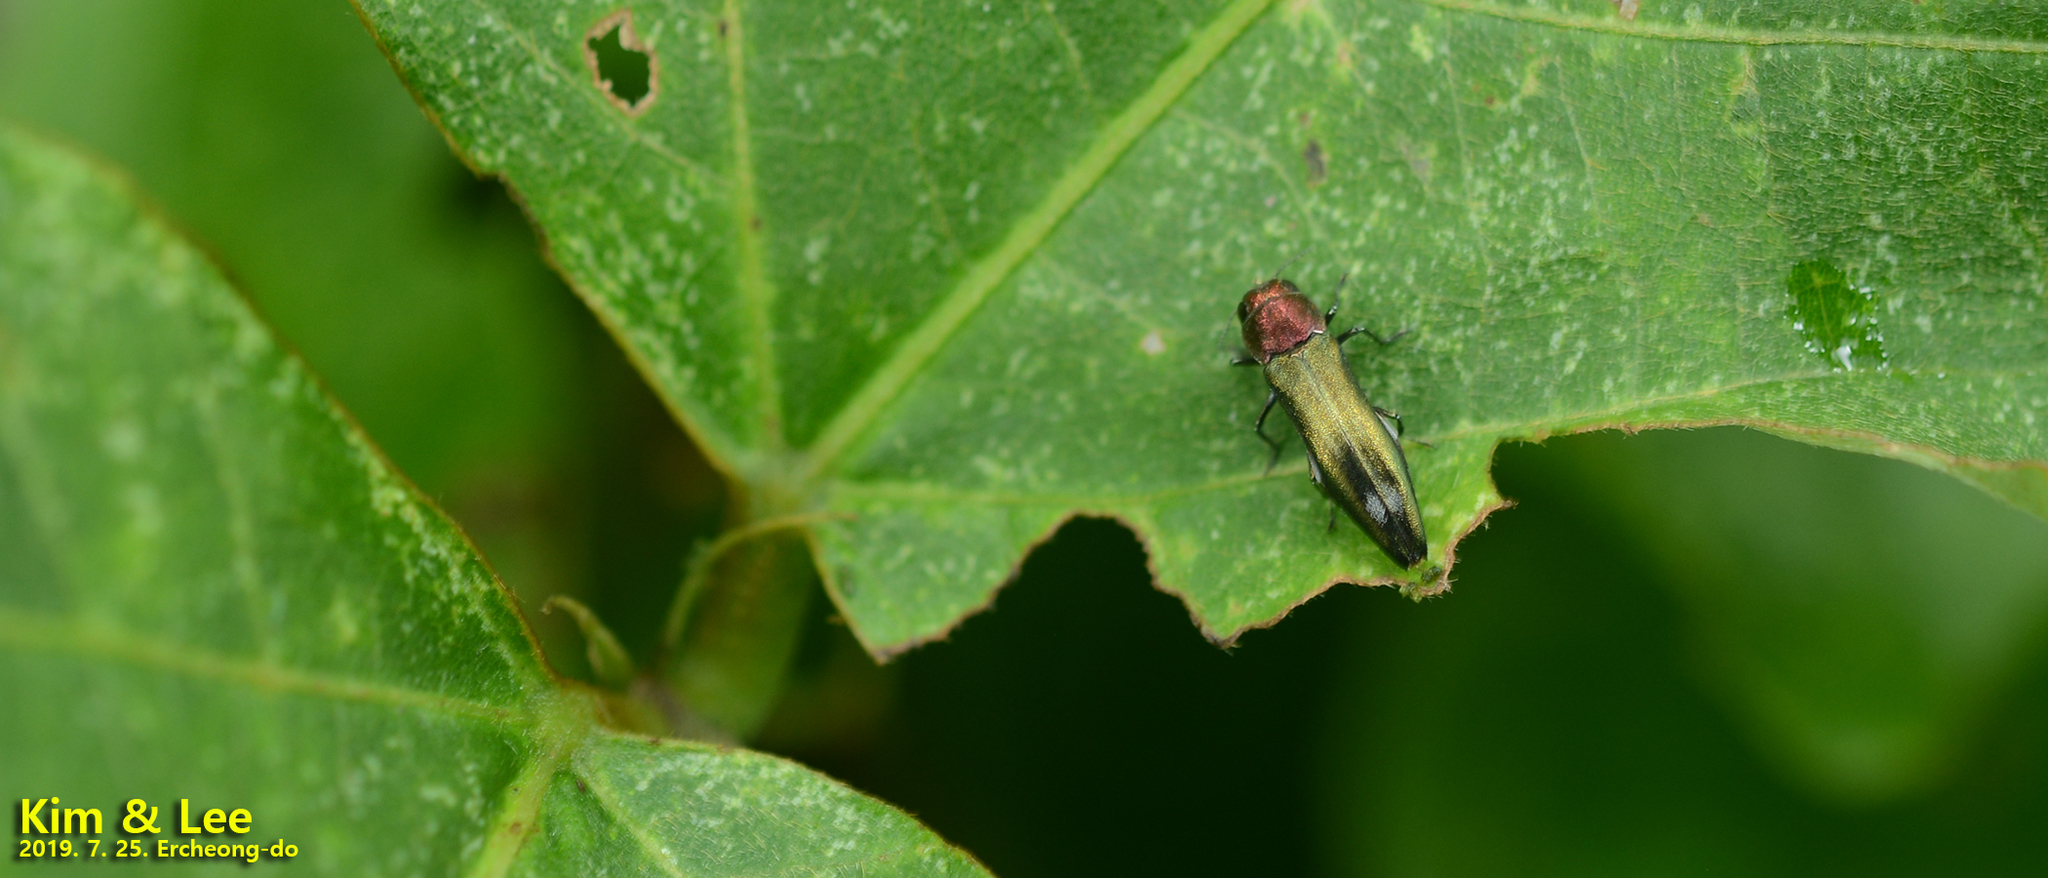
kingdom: Animalia
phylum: Arthropoda
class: Insecta
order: Coleoptera
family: Buprestidae
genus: Agrilus
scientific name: Agrilus chujoi
